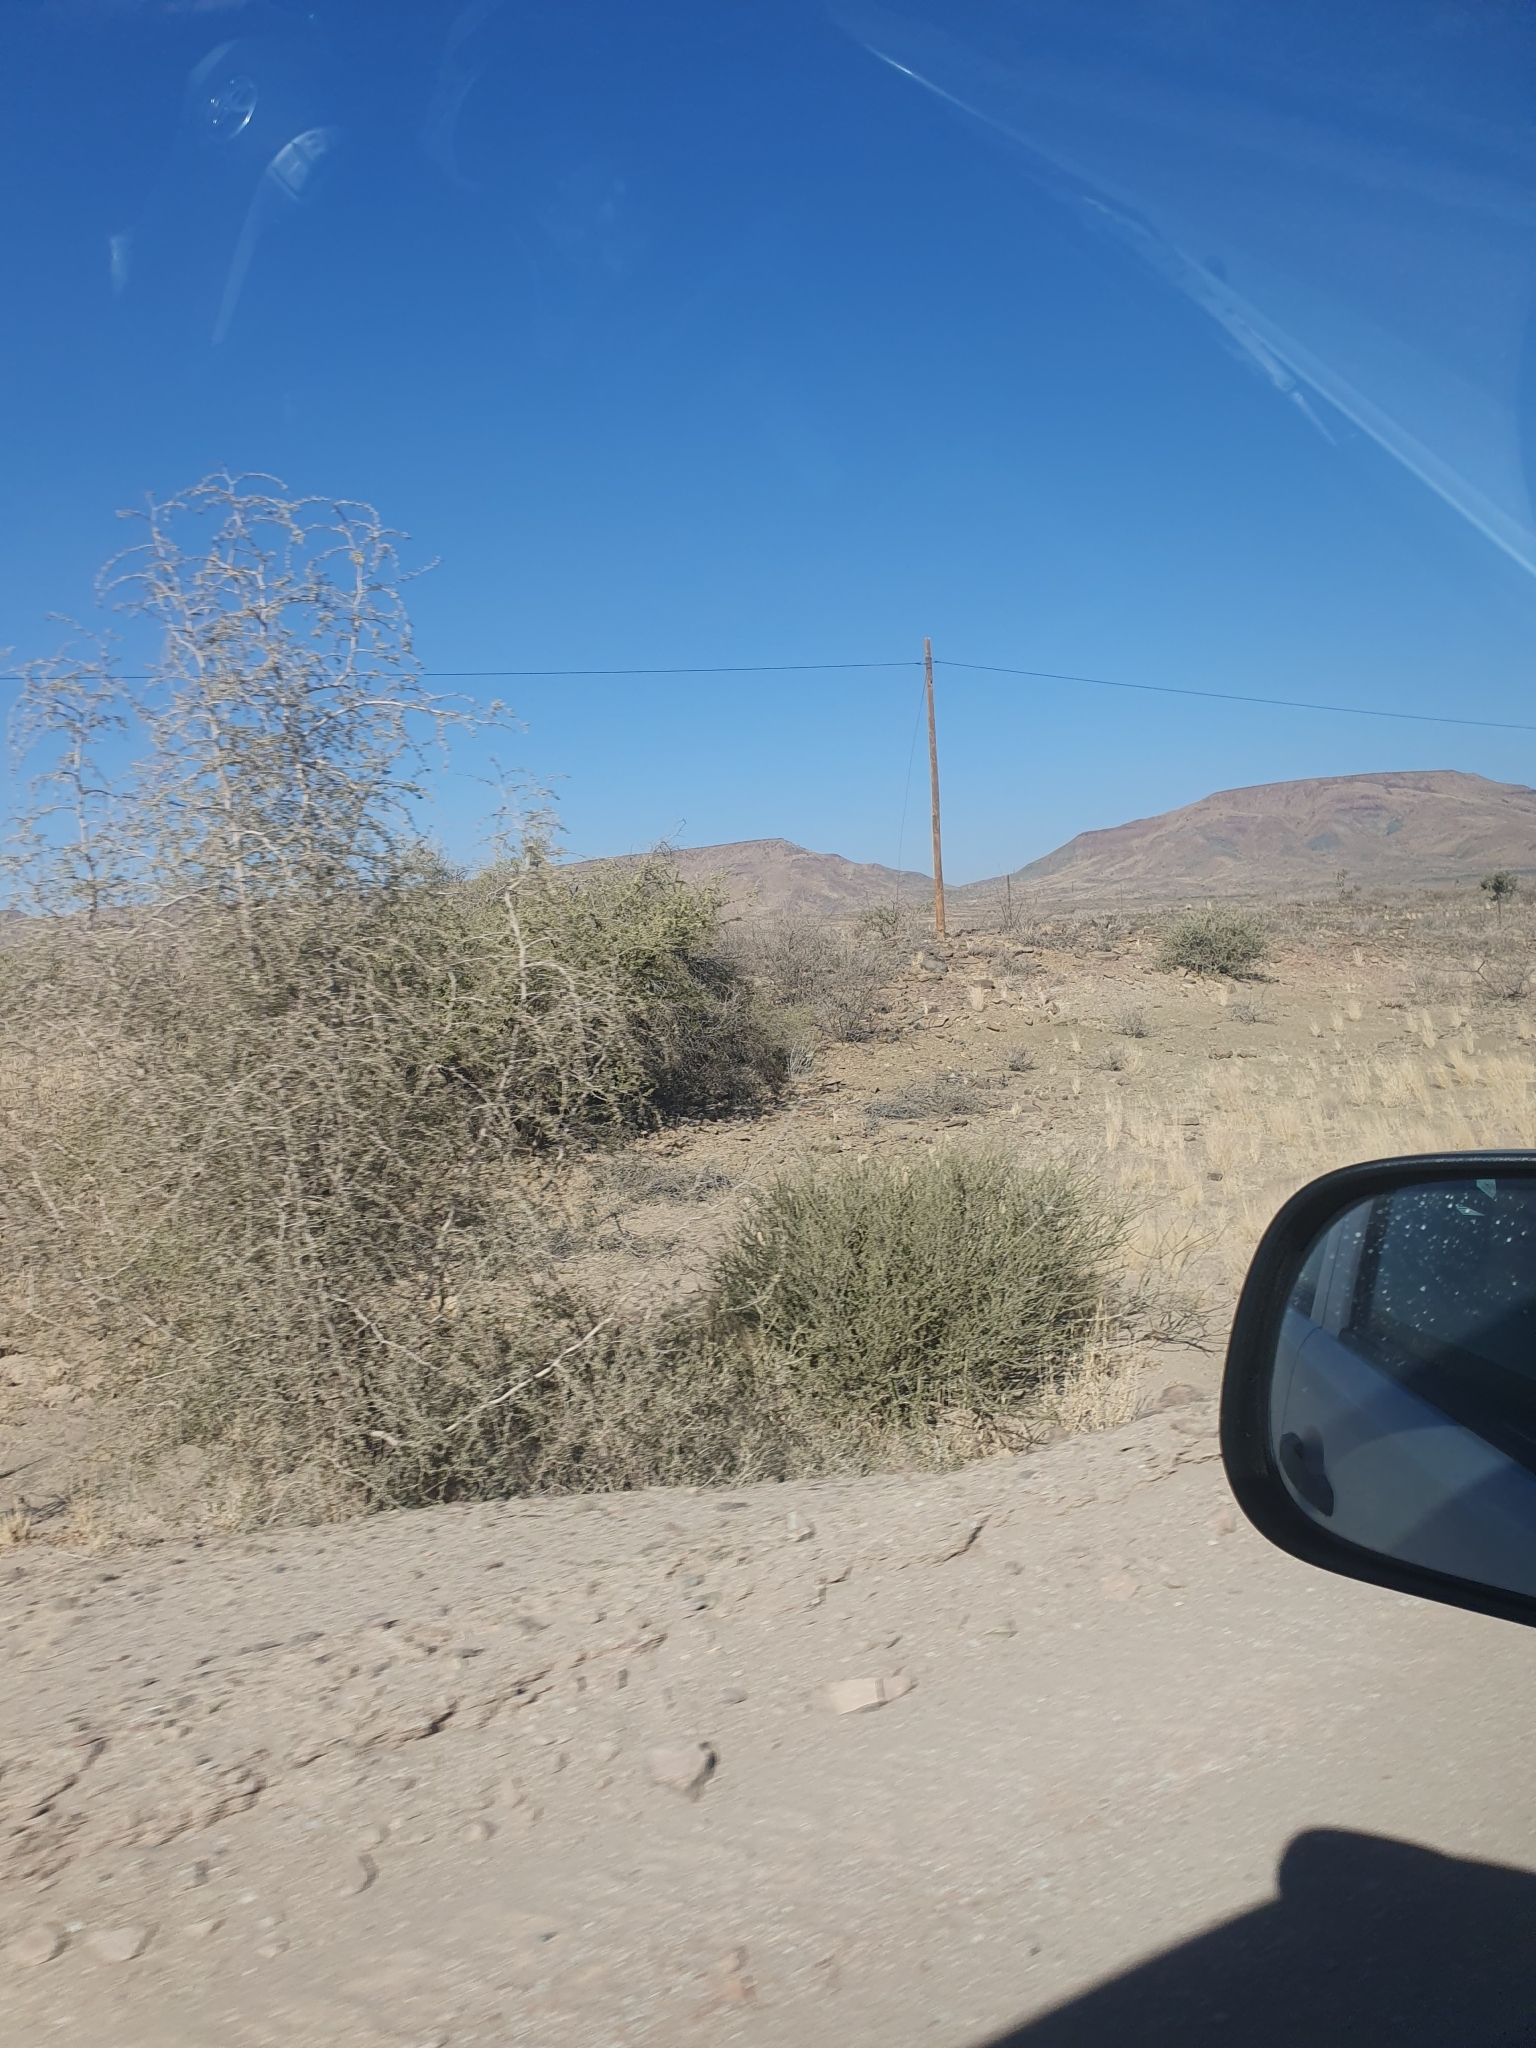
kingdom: Plantae
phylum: Tracheophyta
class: Magnoliopsida
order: Brassicales
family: Capparaceae
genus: Boscia
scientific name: Boscia foetida
